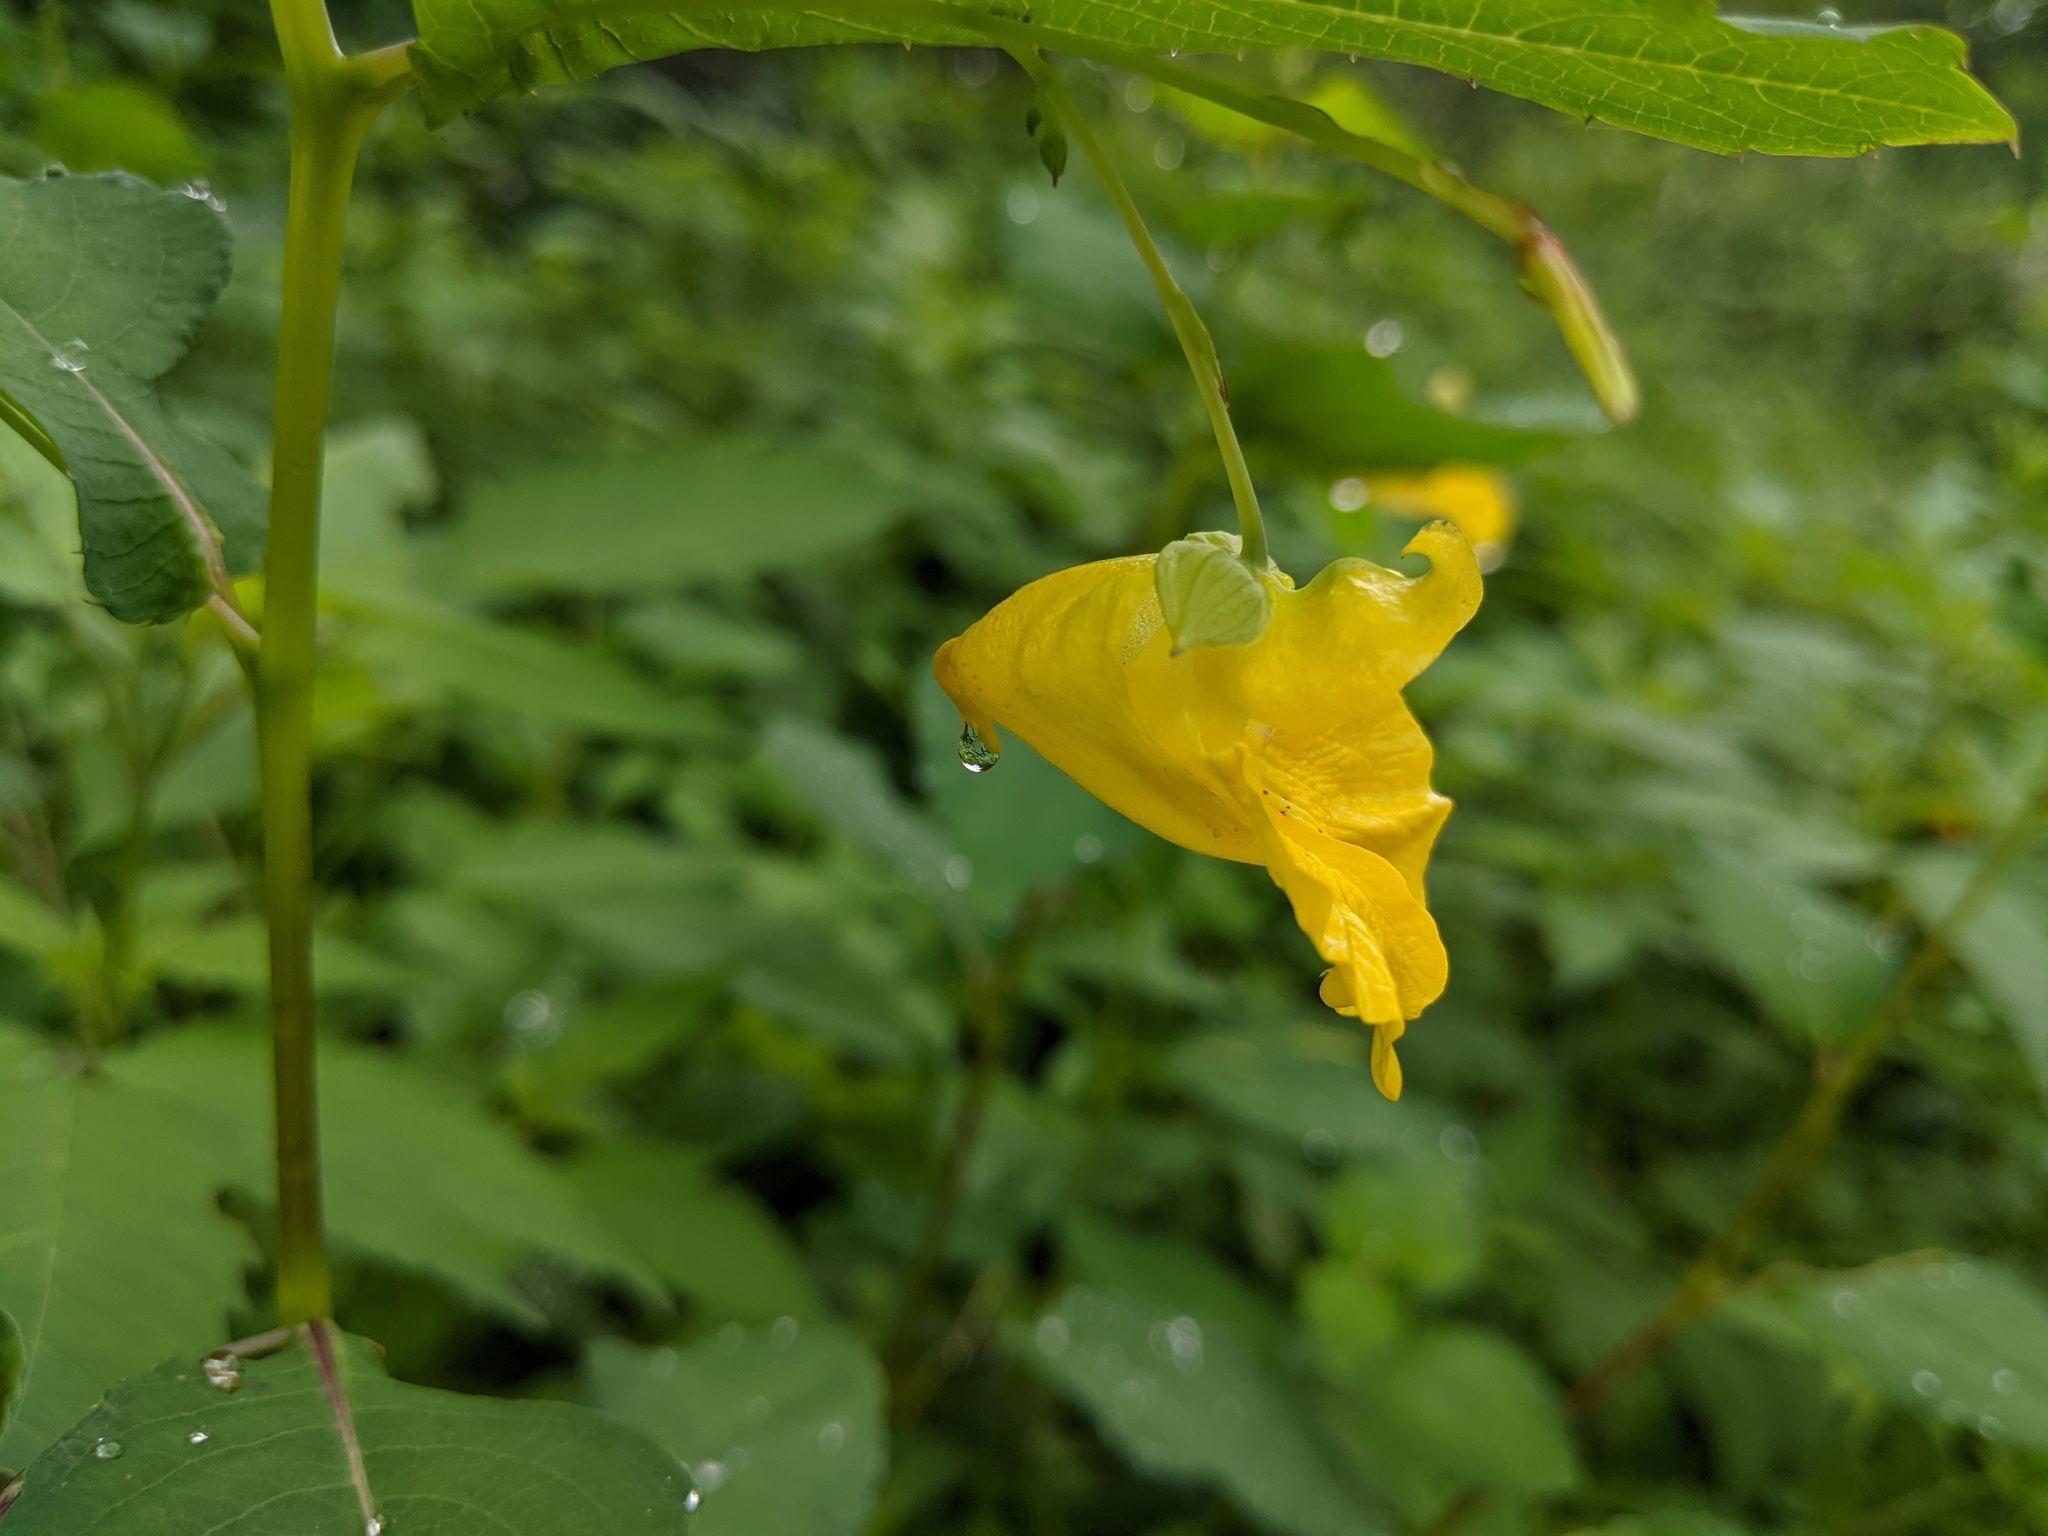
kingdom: Plantae
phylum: Tracheophyta
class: Magnoliopsida
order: Ericales
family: Balsaminaceae
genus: Impatiens
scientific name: Impatiens pallida
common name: Pale snapweed
